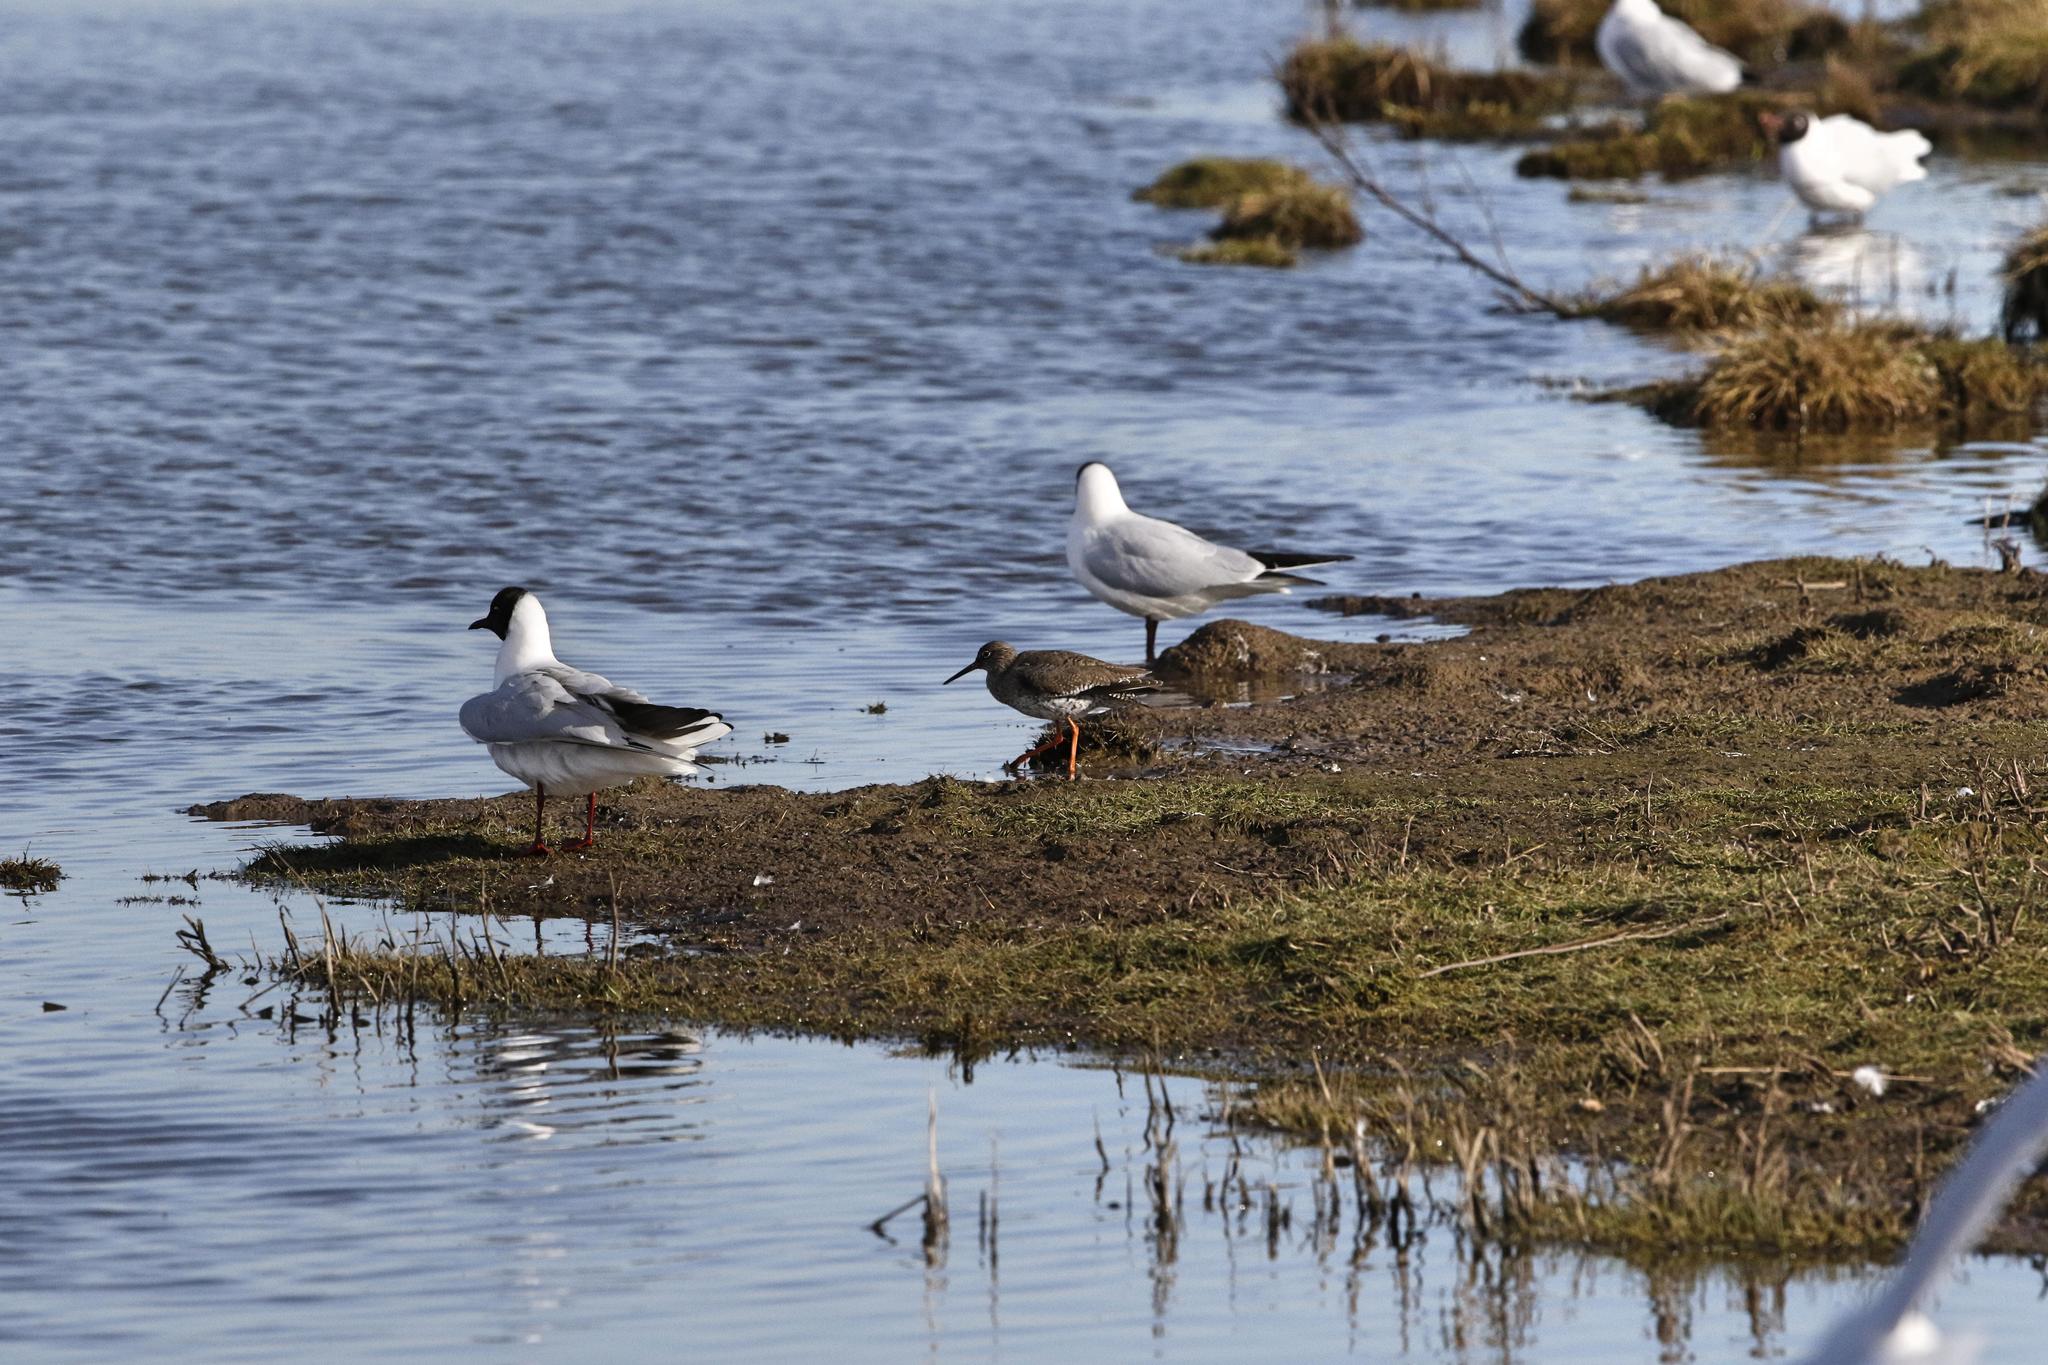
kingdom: Animalia
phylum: Chordata
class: Aves
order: Charadriiformes
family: Laridae
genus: Chroicocephalus
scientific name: Chroicocephalus ridibundus
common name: Black-headed gull
